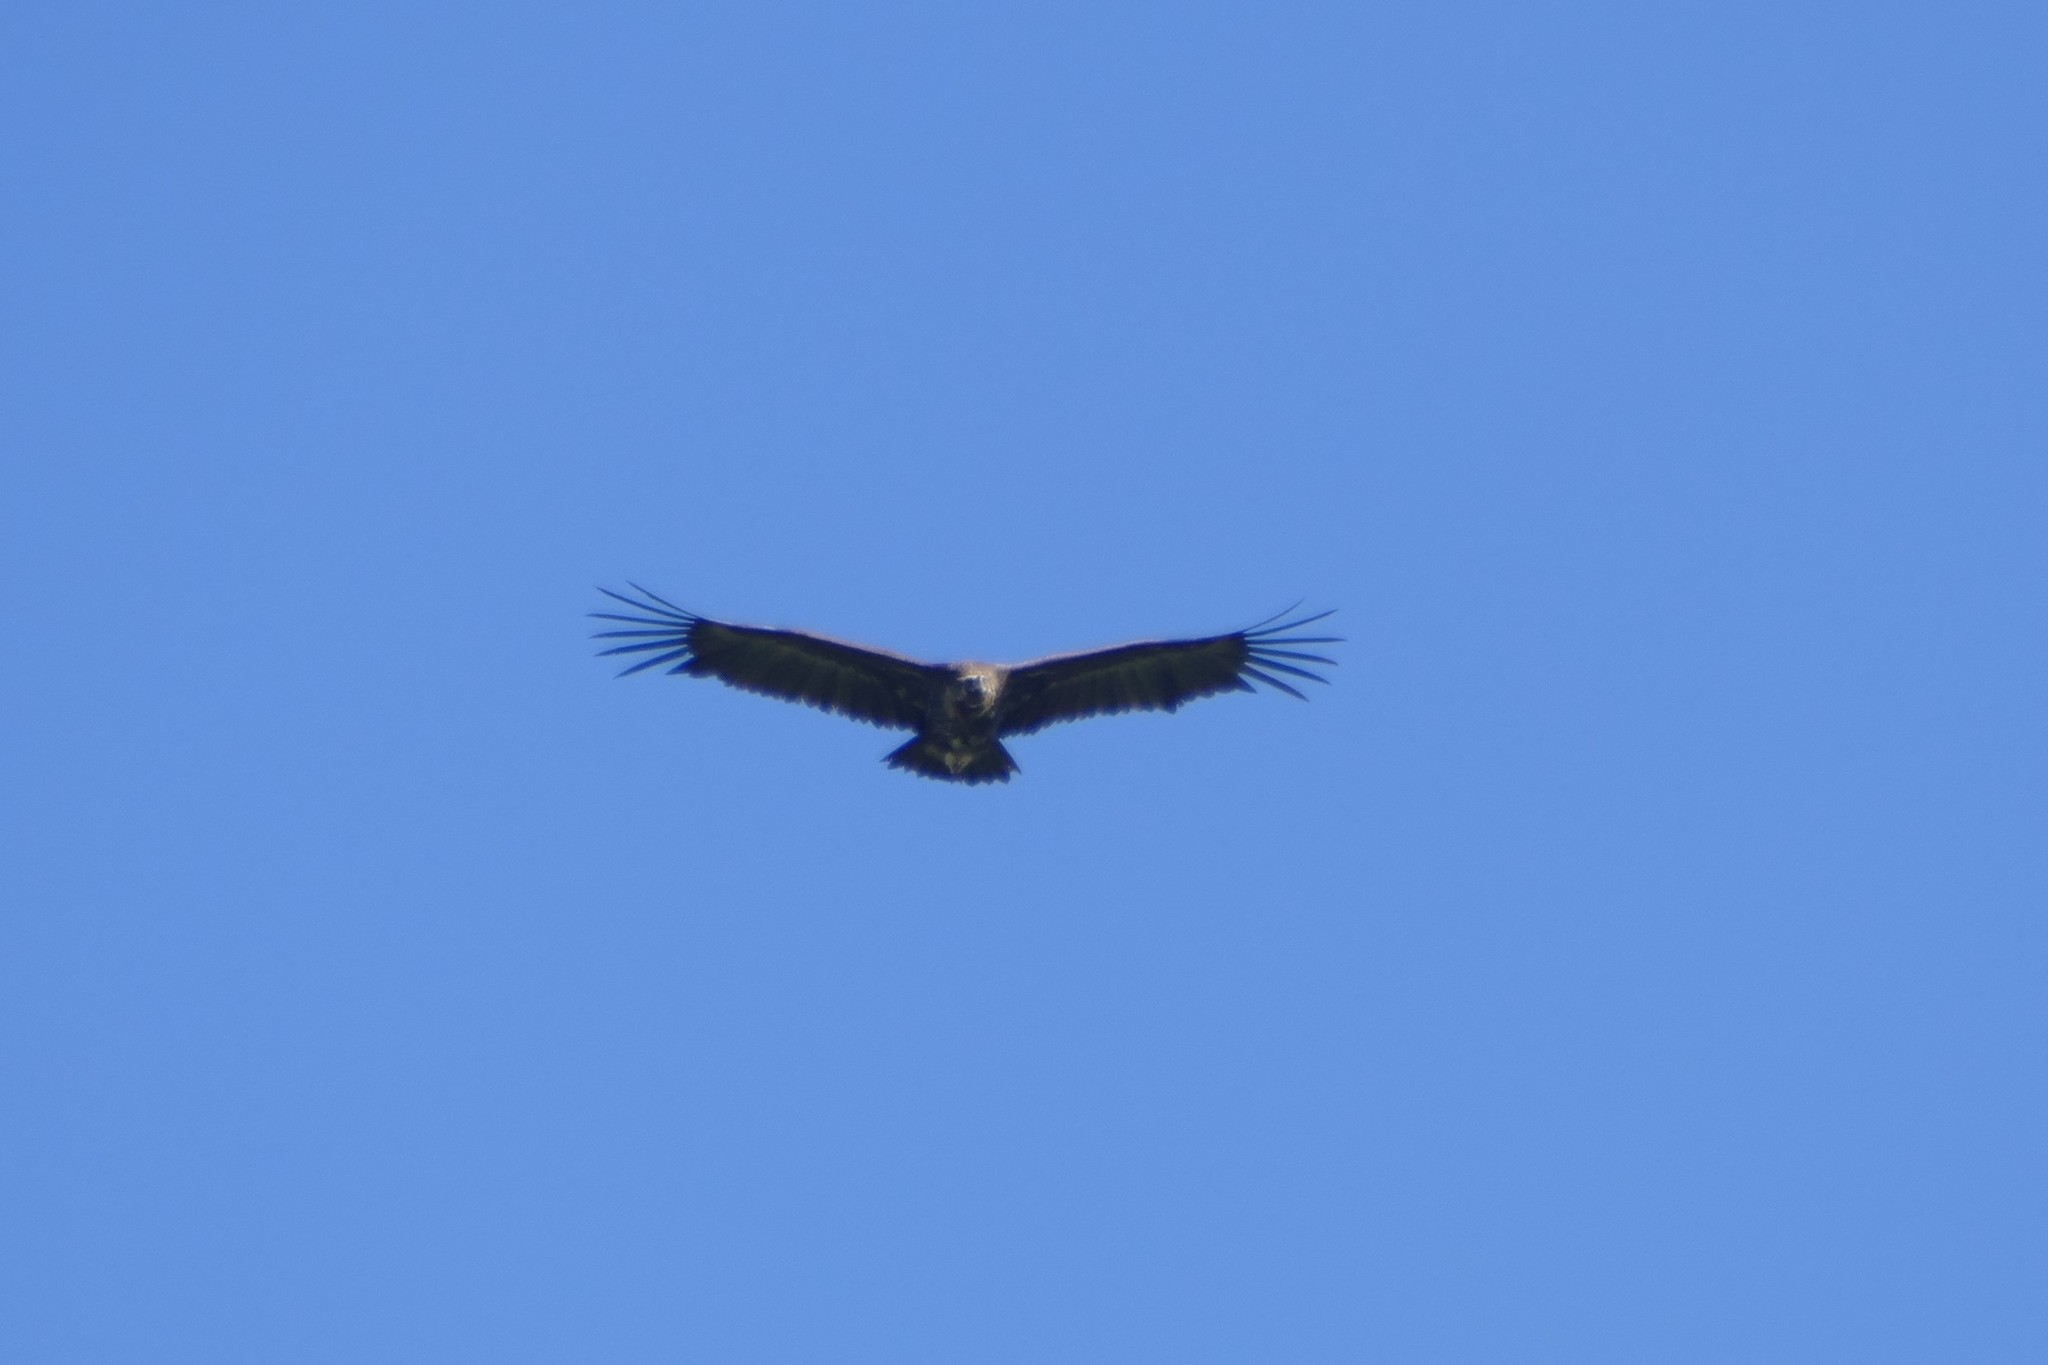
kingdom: Animalia
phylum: Chordata
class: Aves
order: Accipitriformes
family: Accipitridae
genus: Aegypius
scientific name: Aegypius monachus
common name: Cinereous vulture
